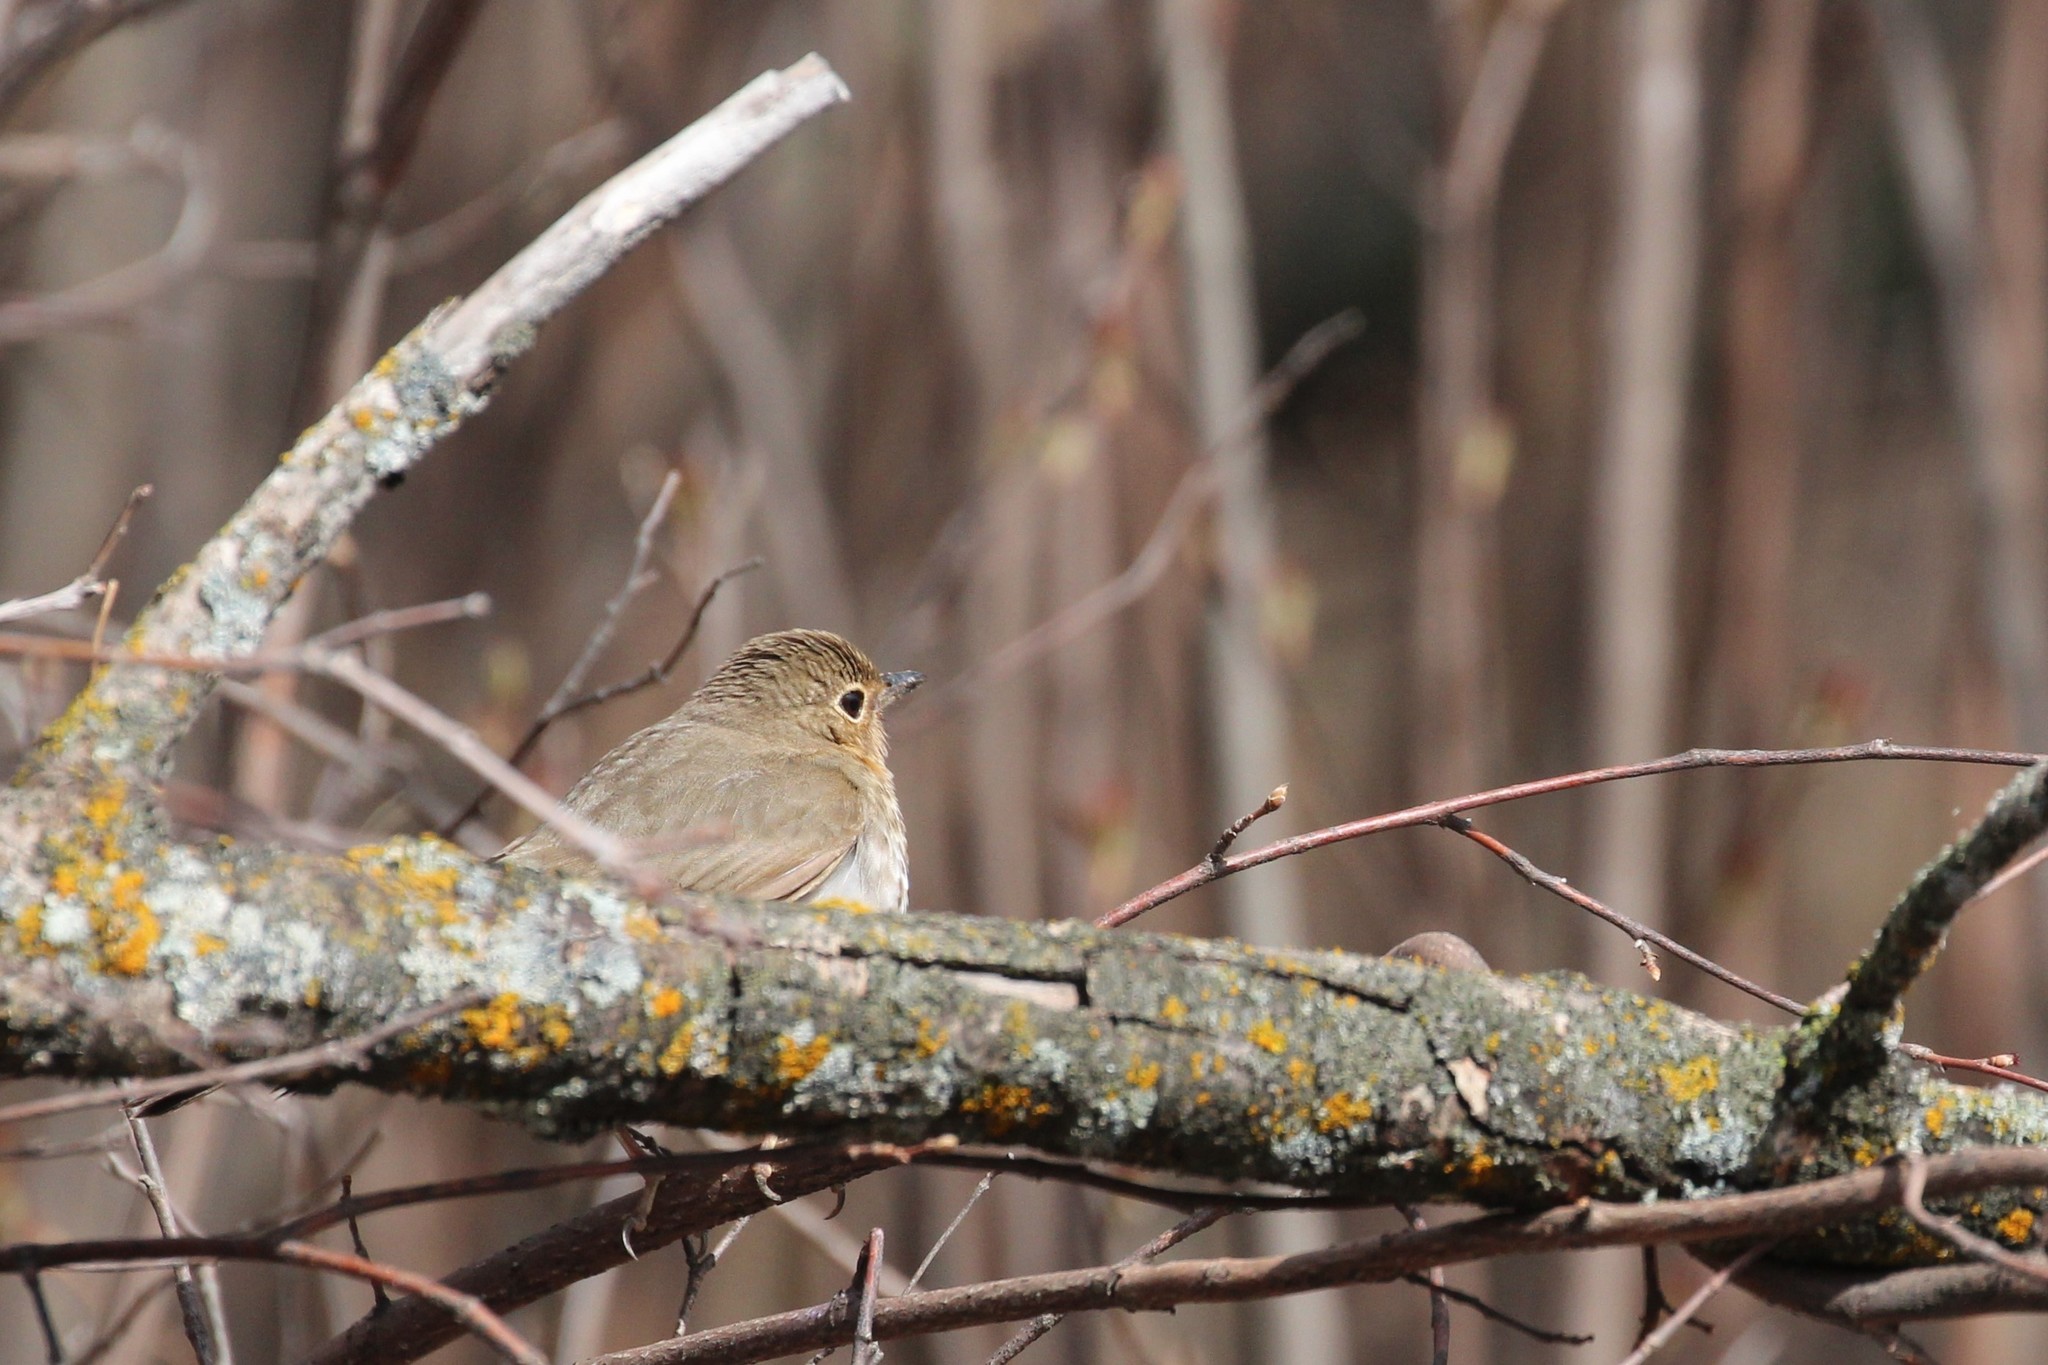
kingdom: Animalia
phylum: Chordata
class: Aves
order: Passeriformes
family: Turdidae
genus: Catharus
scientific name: Catharus ustulatus
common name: Swainson's thrush
